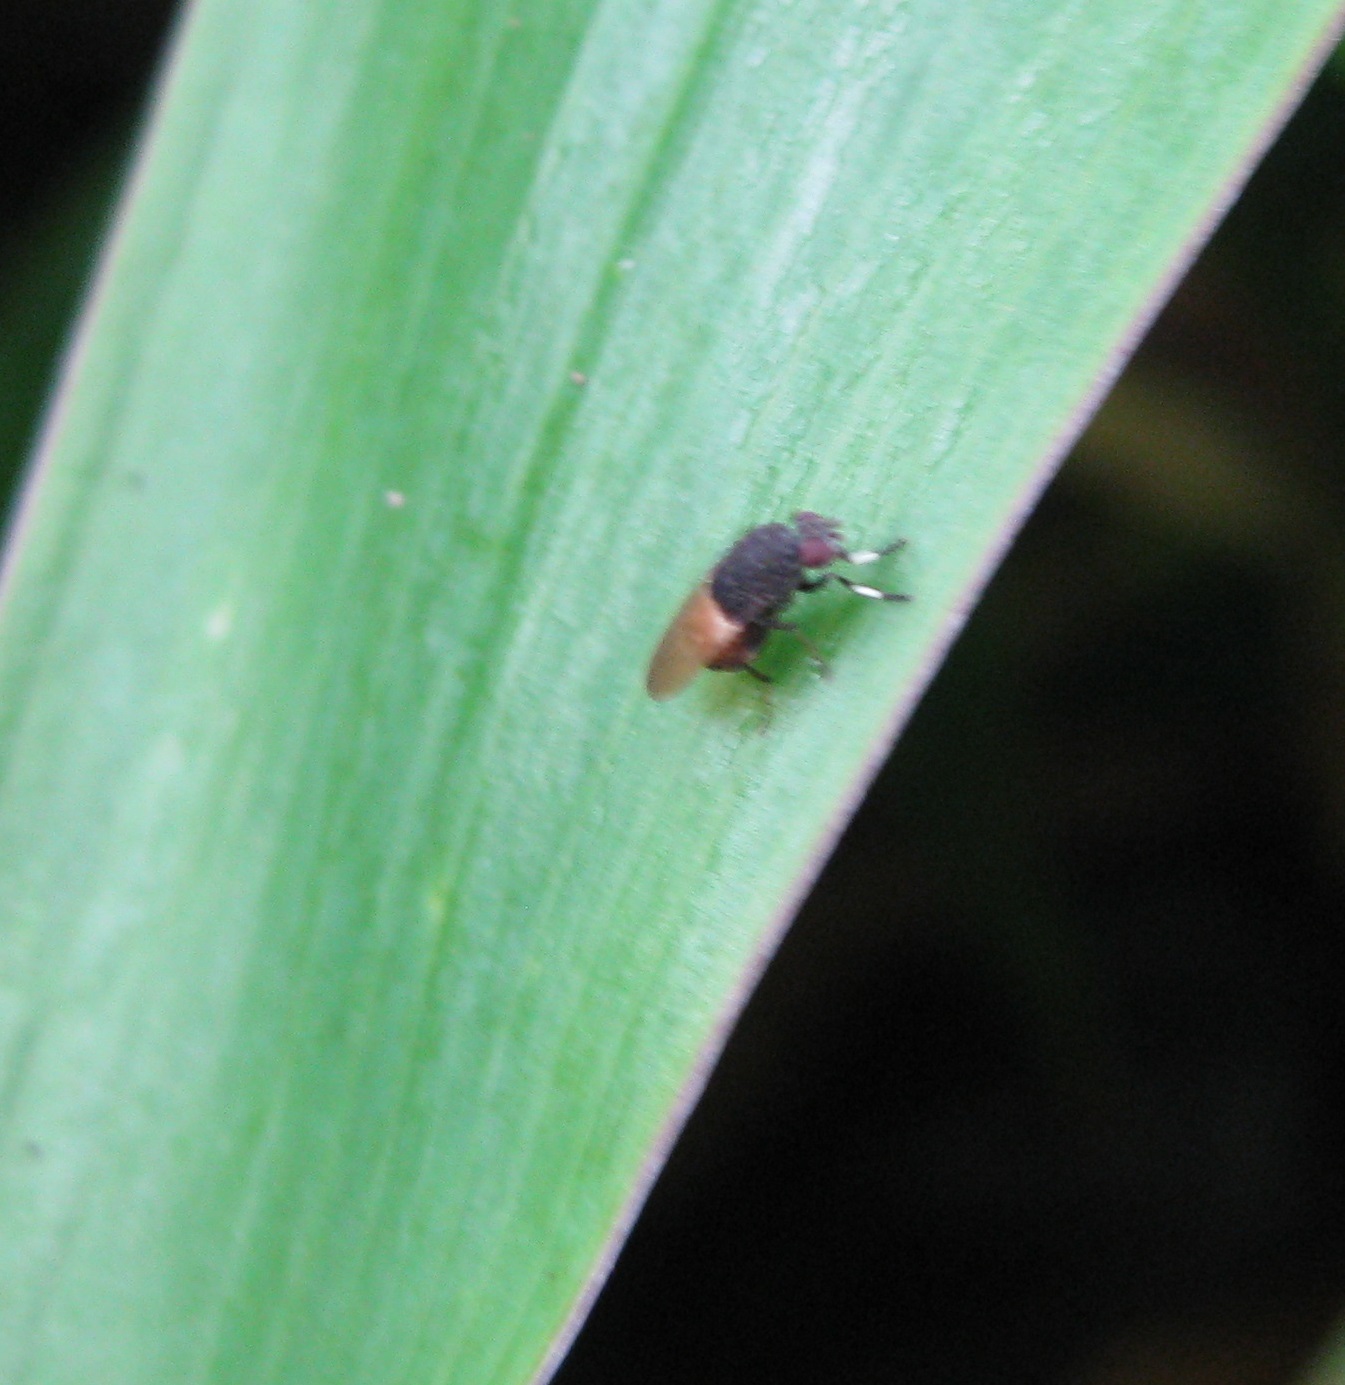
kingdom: Animalia
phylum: Arthropoda
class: Insecta
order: Diptera
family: Heleomyzidae
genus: Allophylina
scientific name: Allophylina albitarsis
